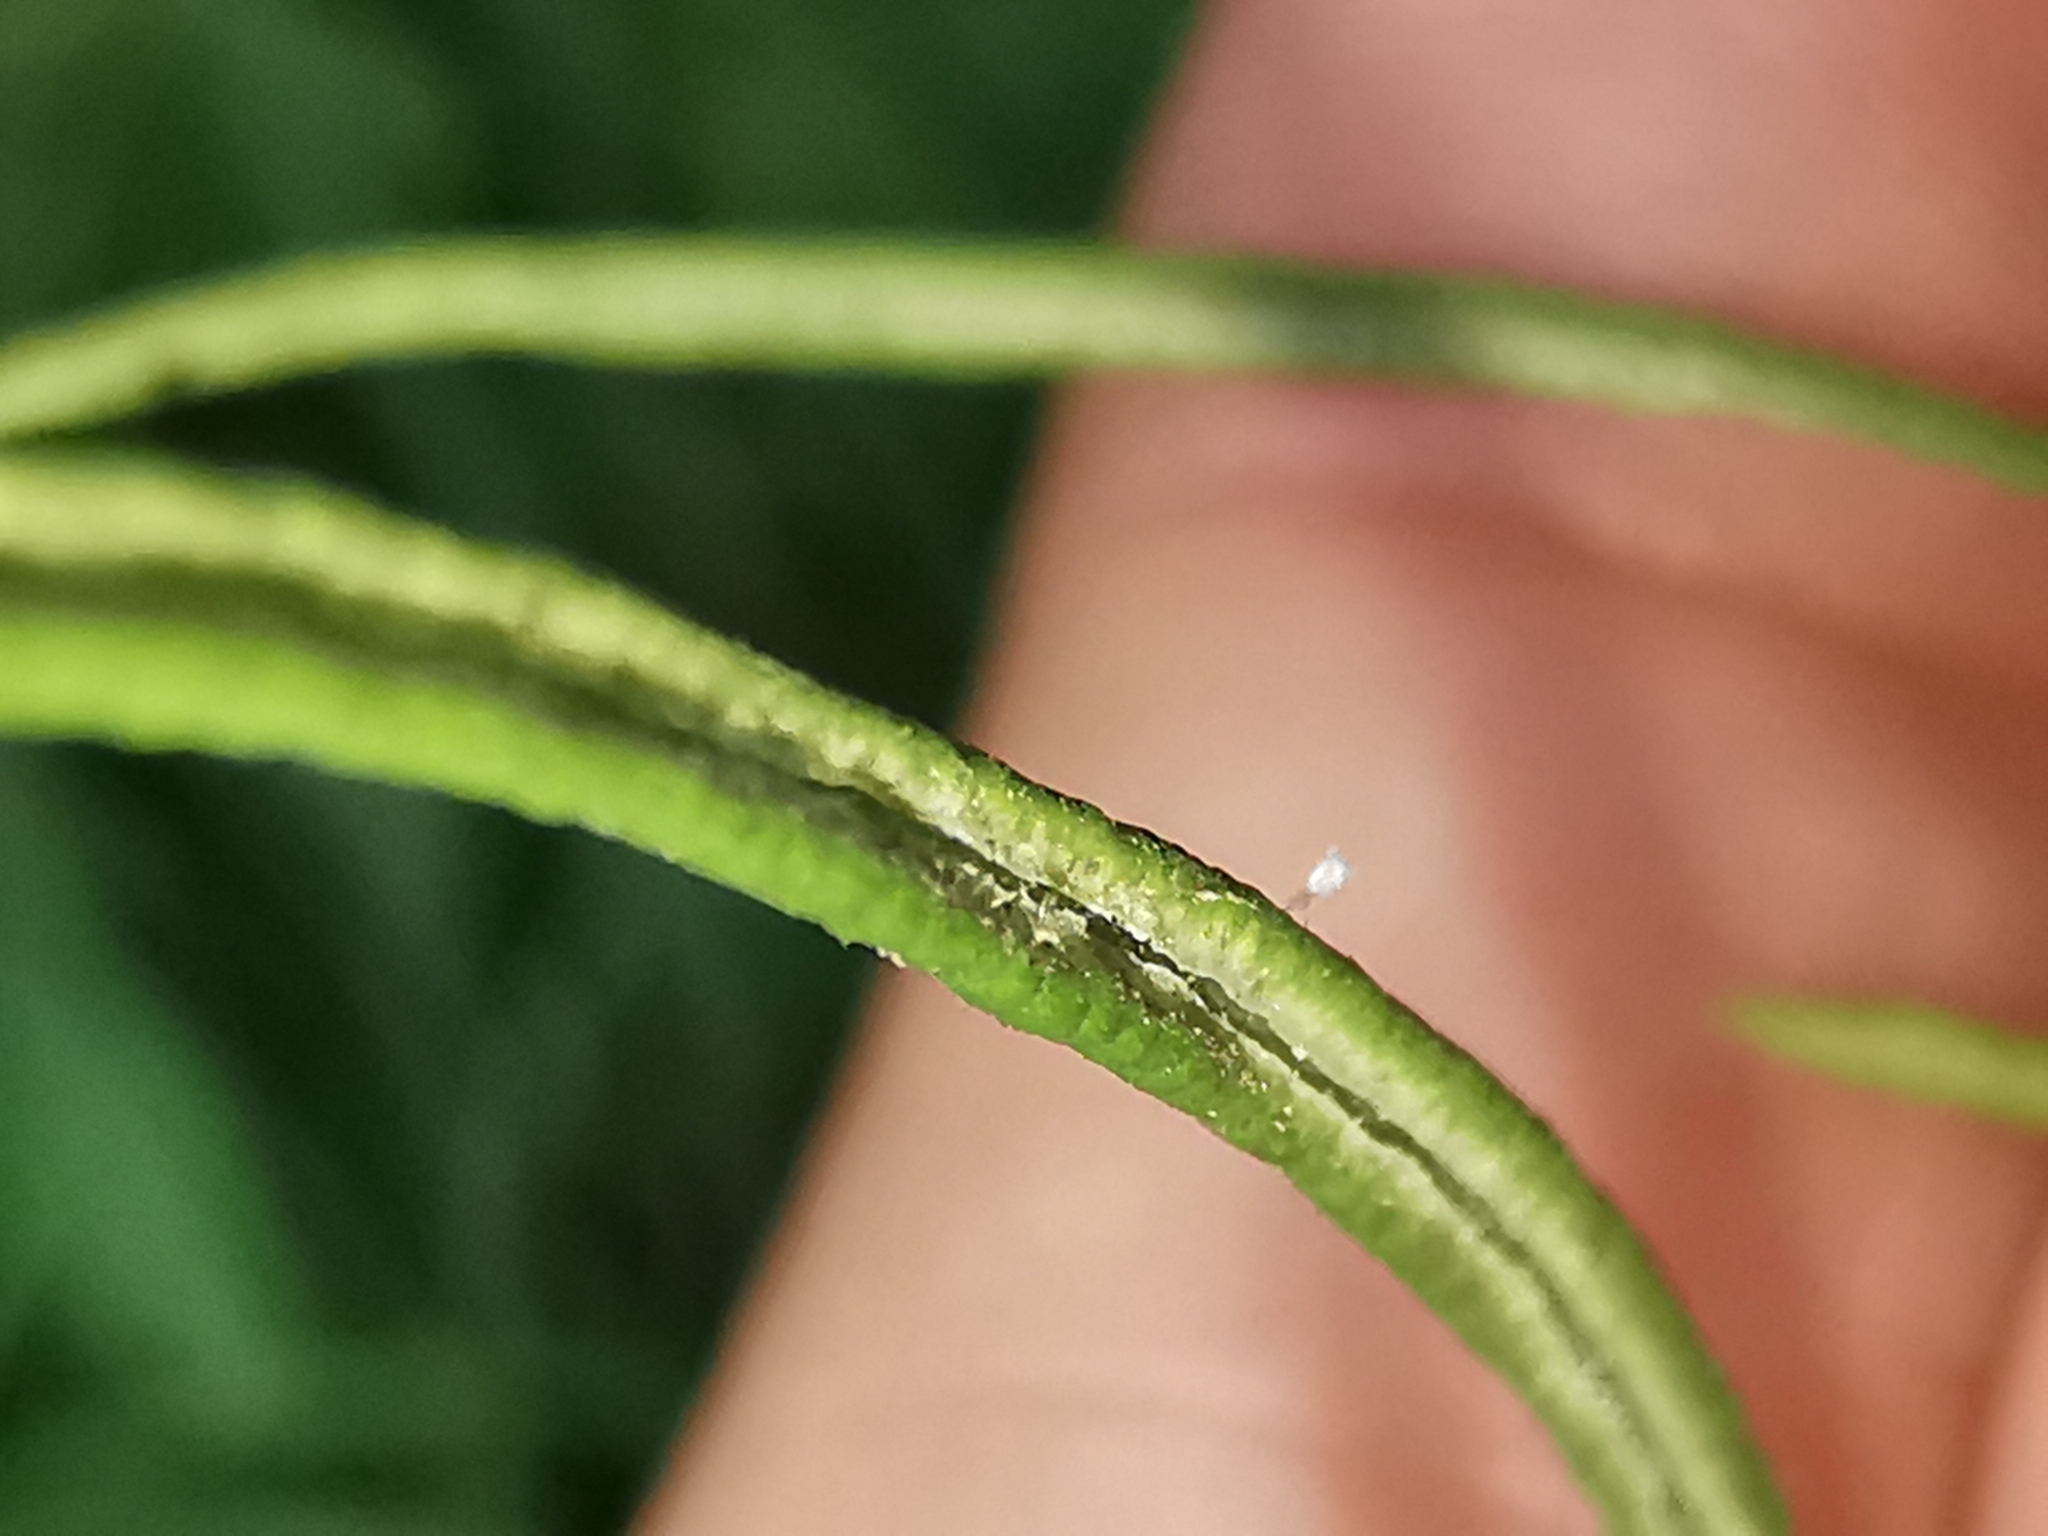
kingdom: Plantae
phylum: Tracheophyta
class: Polypodiopsida
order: Polypodiales
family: Pteridaceae
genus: Llavea
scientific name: Llavea cordifolia
